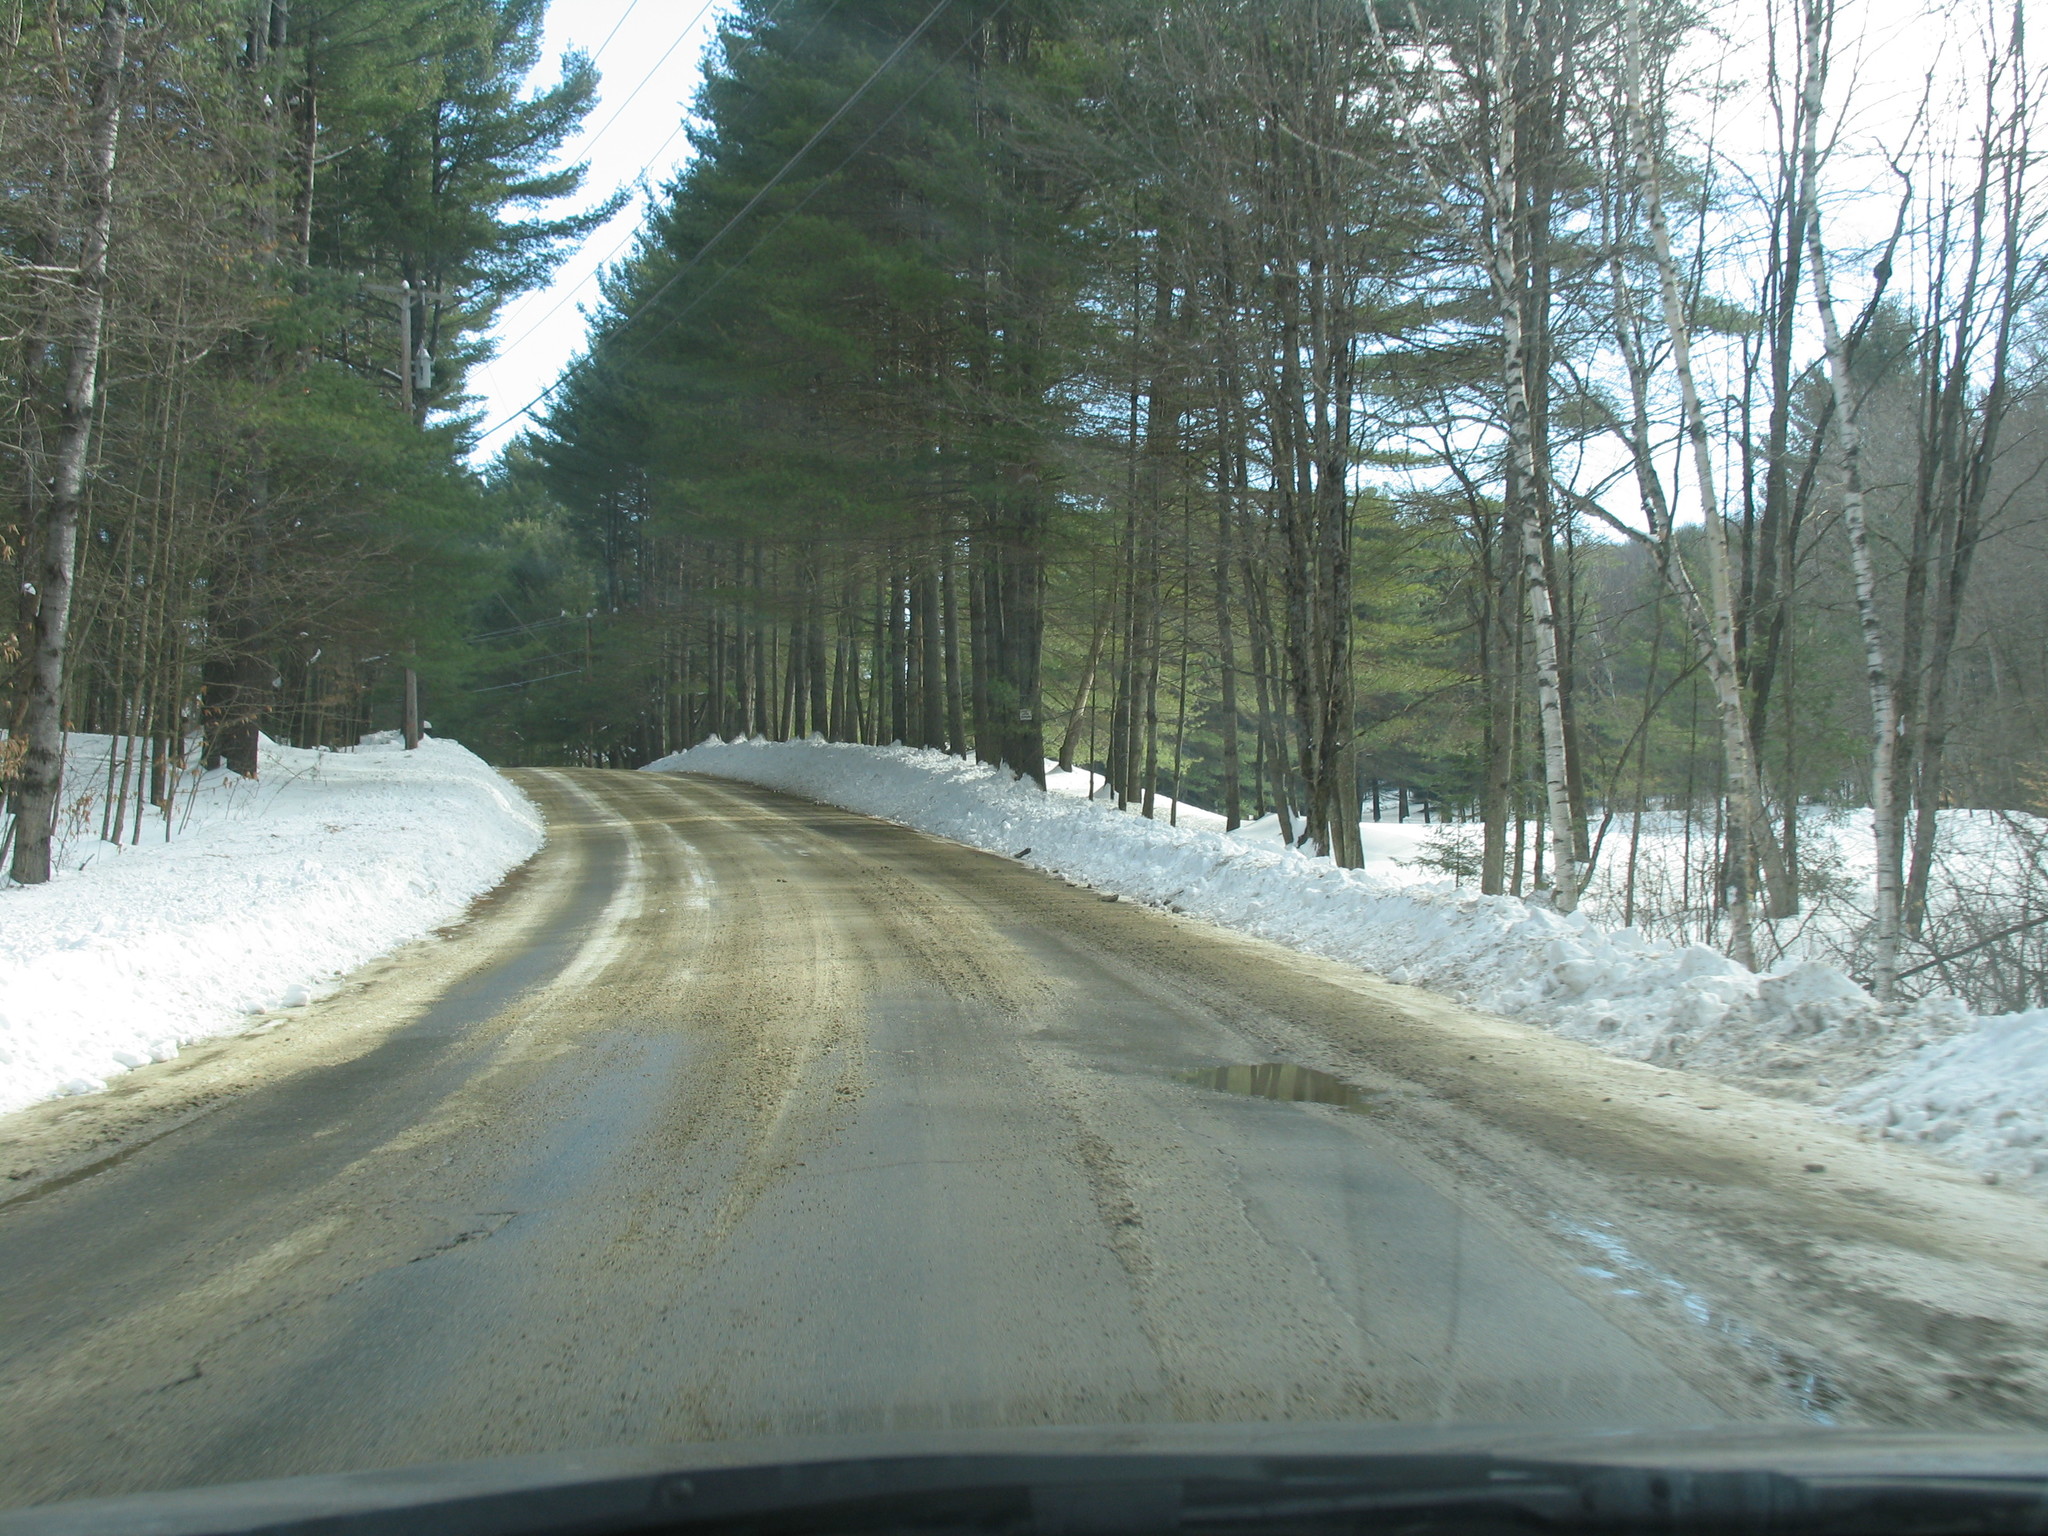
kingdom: Plantae
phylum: Tracheophyta
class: Pinopsida
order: Pinales
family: Pinaceae
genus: Pinus
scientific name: Pinus strobus
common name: Weymouth pine
